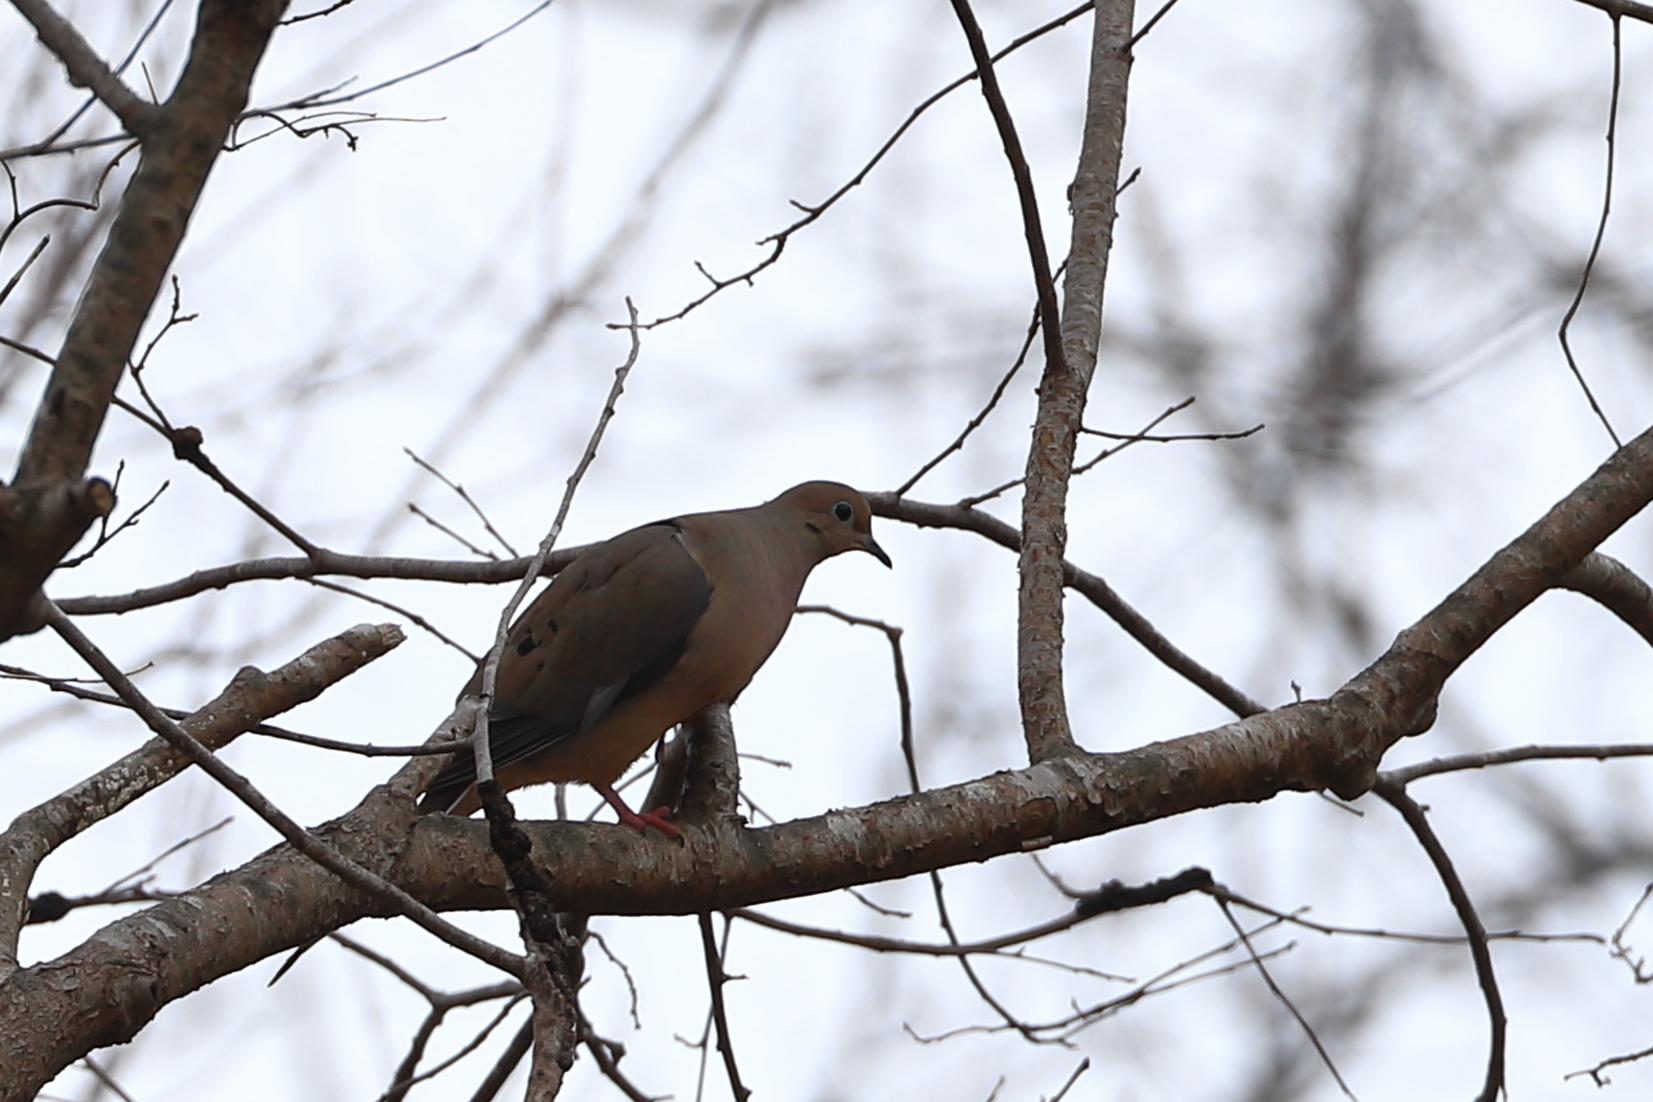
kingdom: Animalia
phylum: Chordata
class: Aves
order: Columbiformes
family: Columbidae
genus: Zenaida
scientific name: Zenaida macroura
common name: Mourning dove
